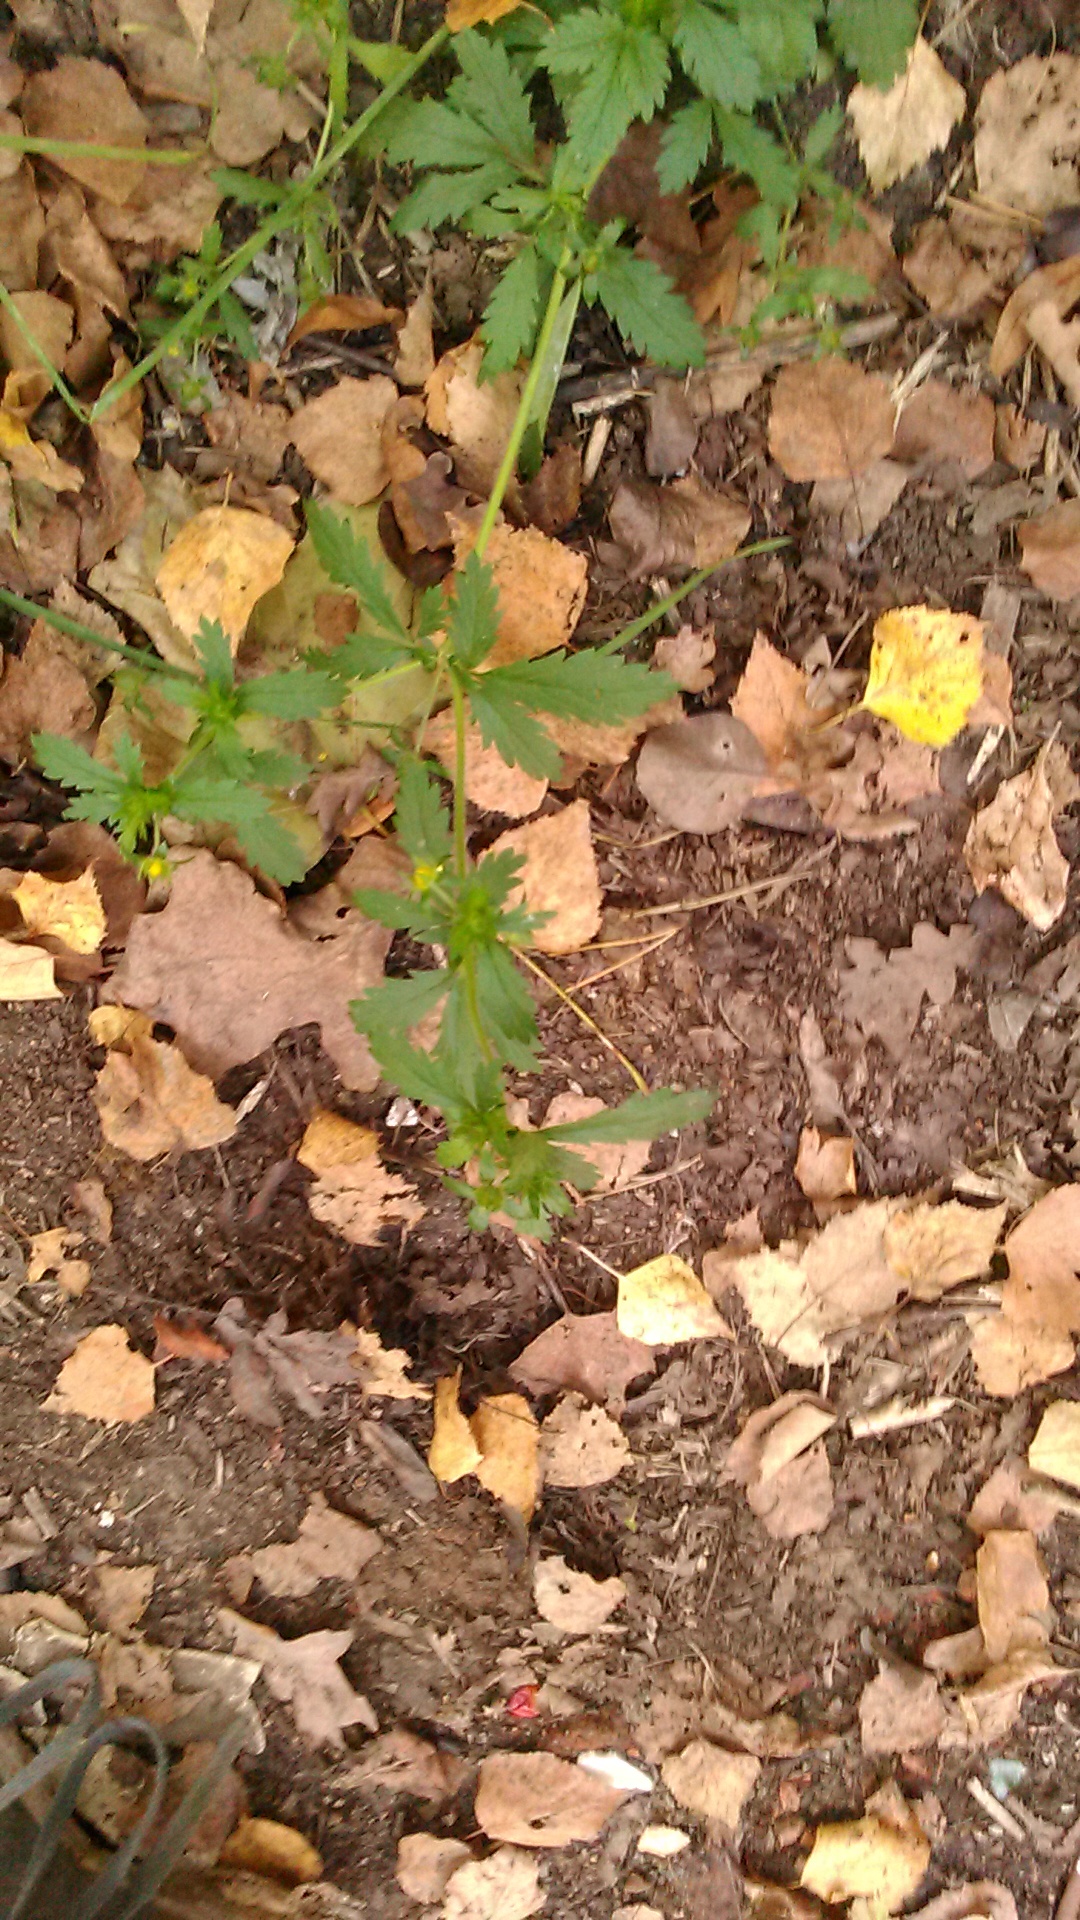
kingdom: Plantae
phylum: Tracheophyta
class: Magnoliopsida
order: Rosales
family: Rosaceae
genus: Potentilla
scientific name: Potentilla norvegica
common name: Ternate-leaved cinquefoil
